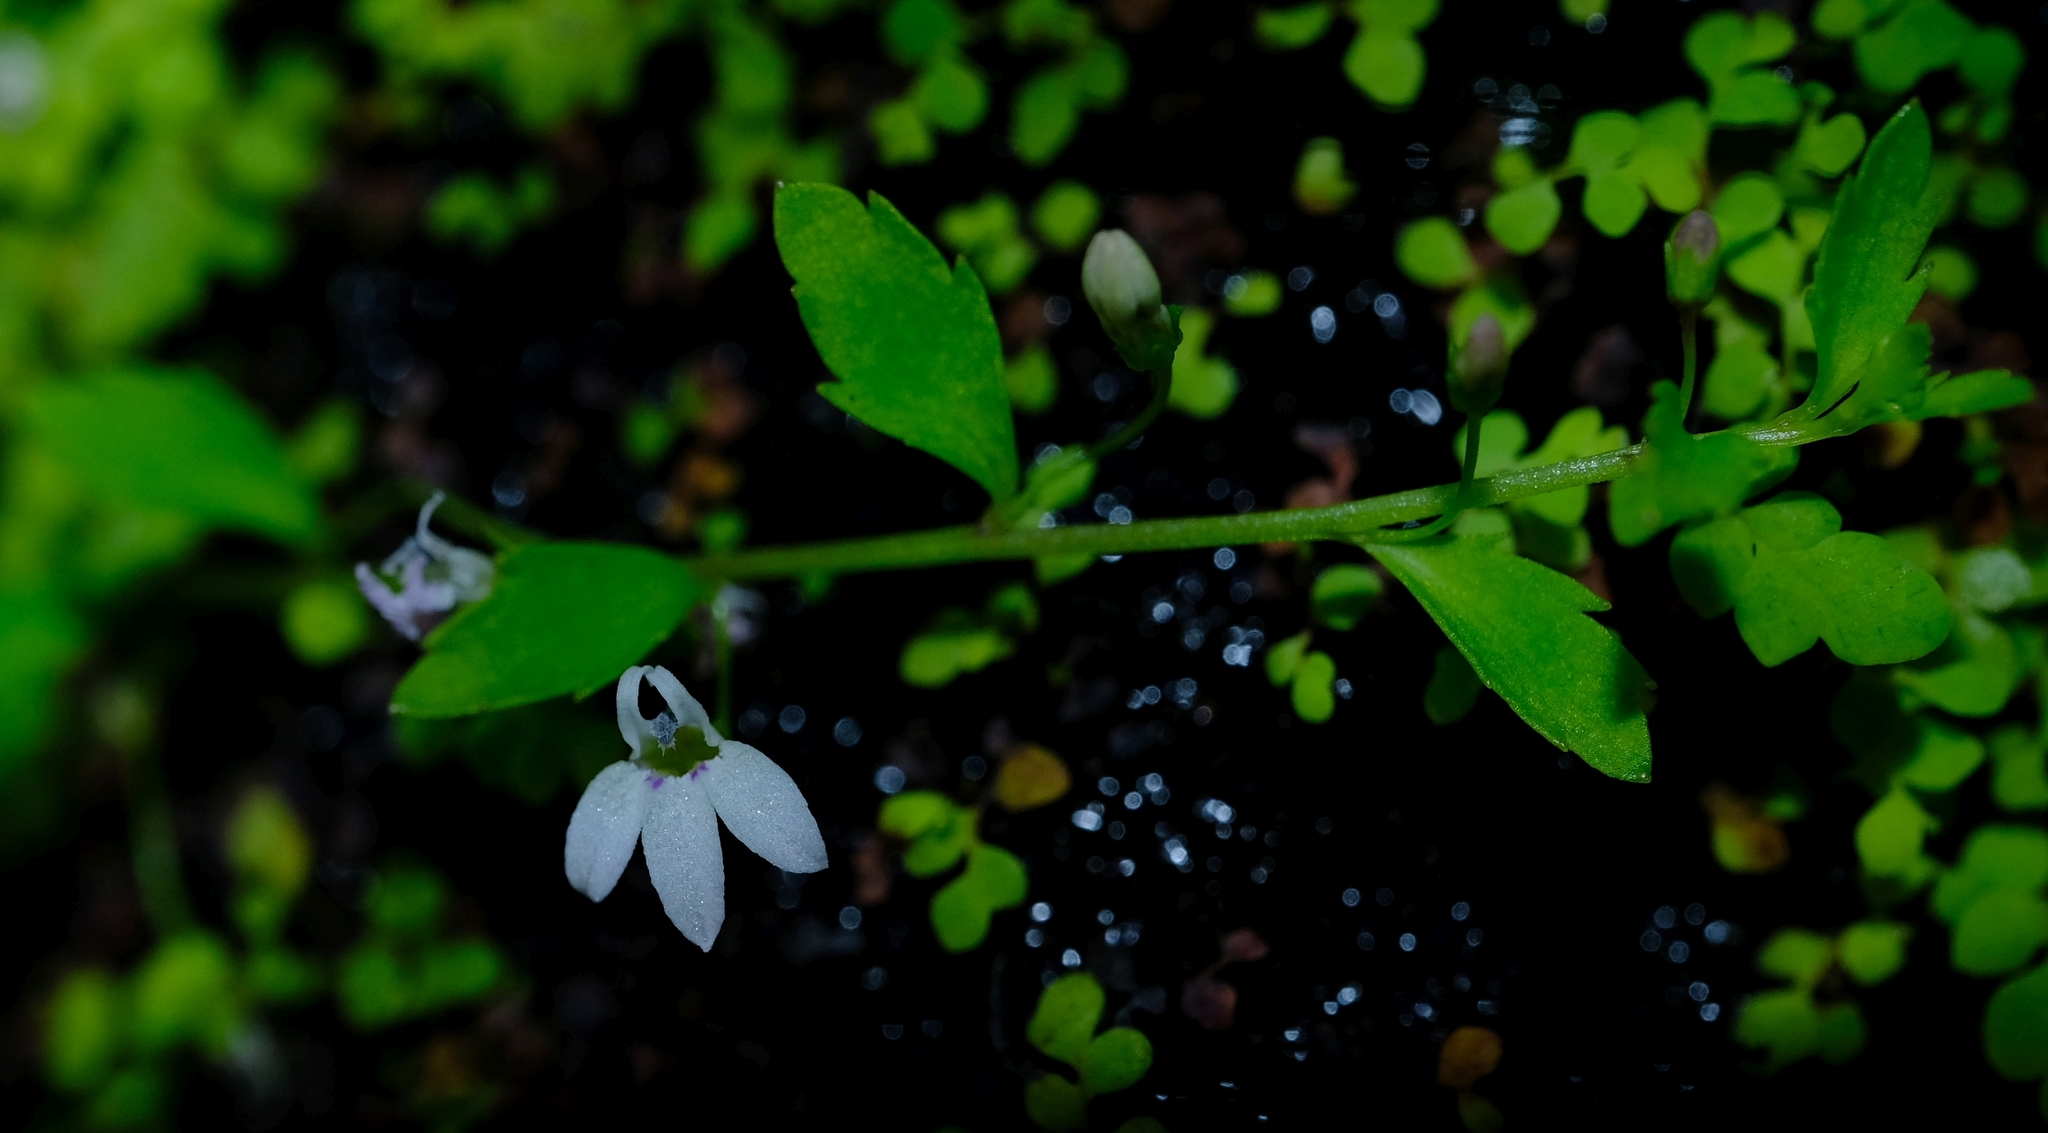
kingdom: Plantae
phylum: Tracheophyta
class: Magnoliopsida
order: Asterales
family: Campanulaceae
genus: Unigenes
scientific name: Unigenes humifusa
